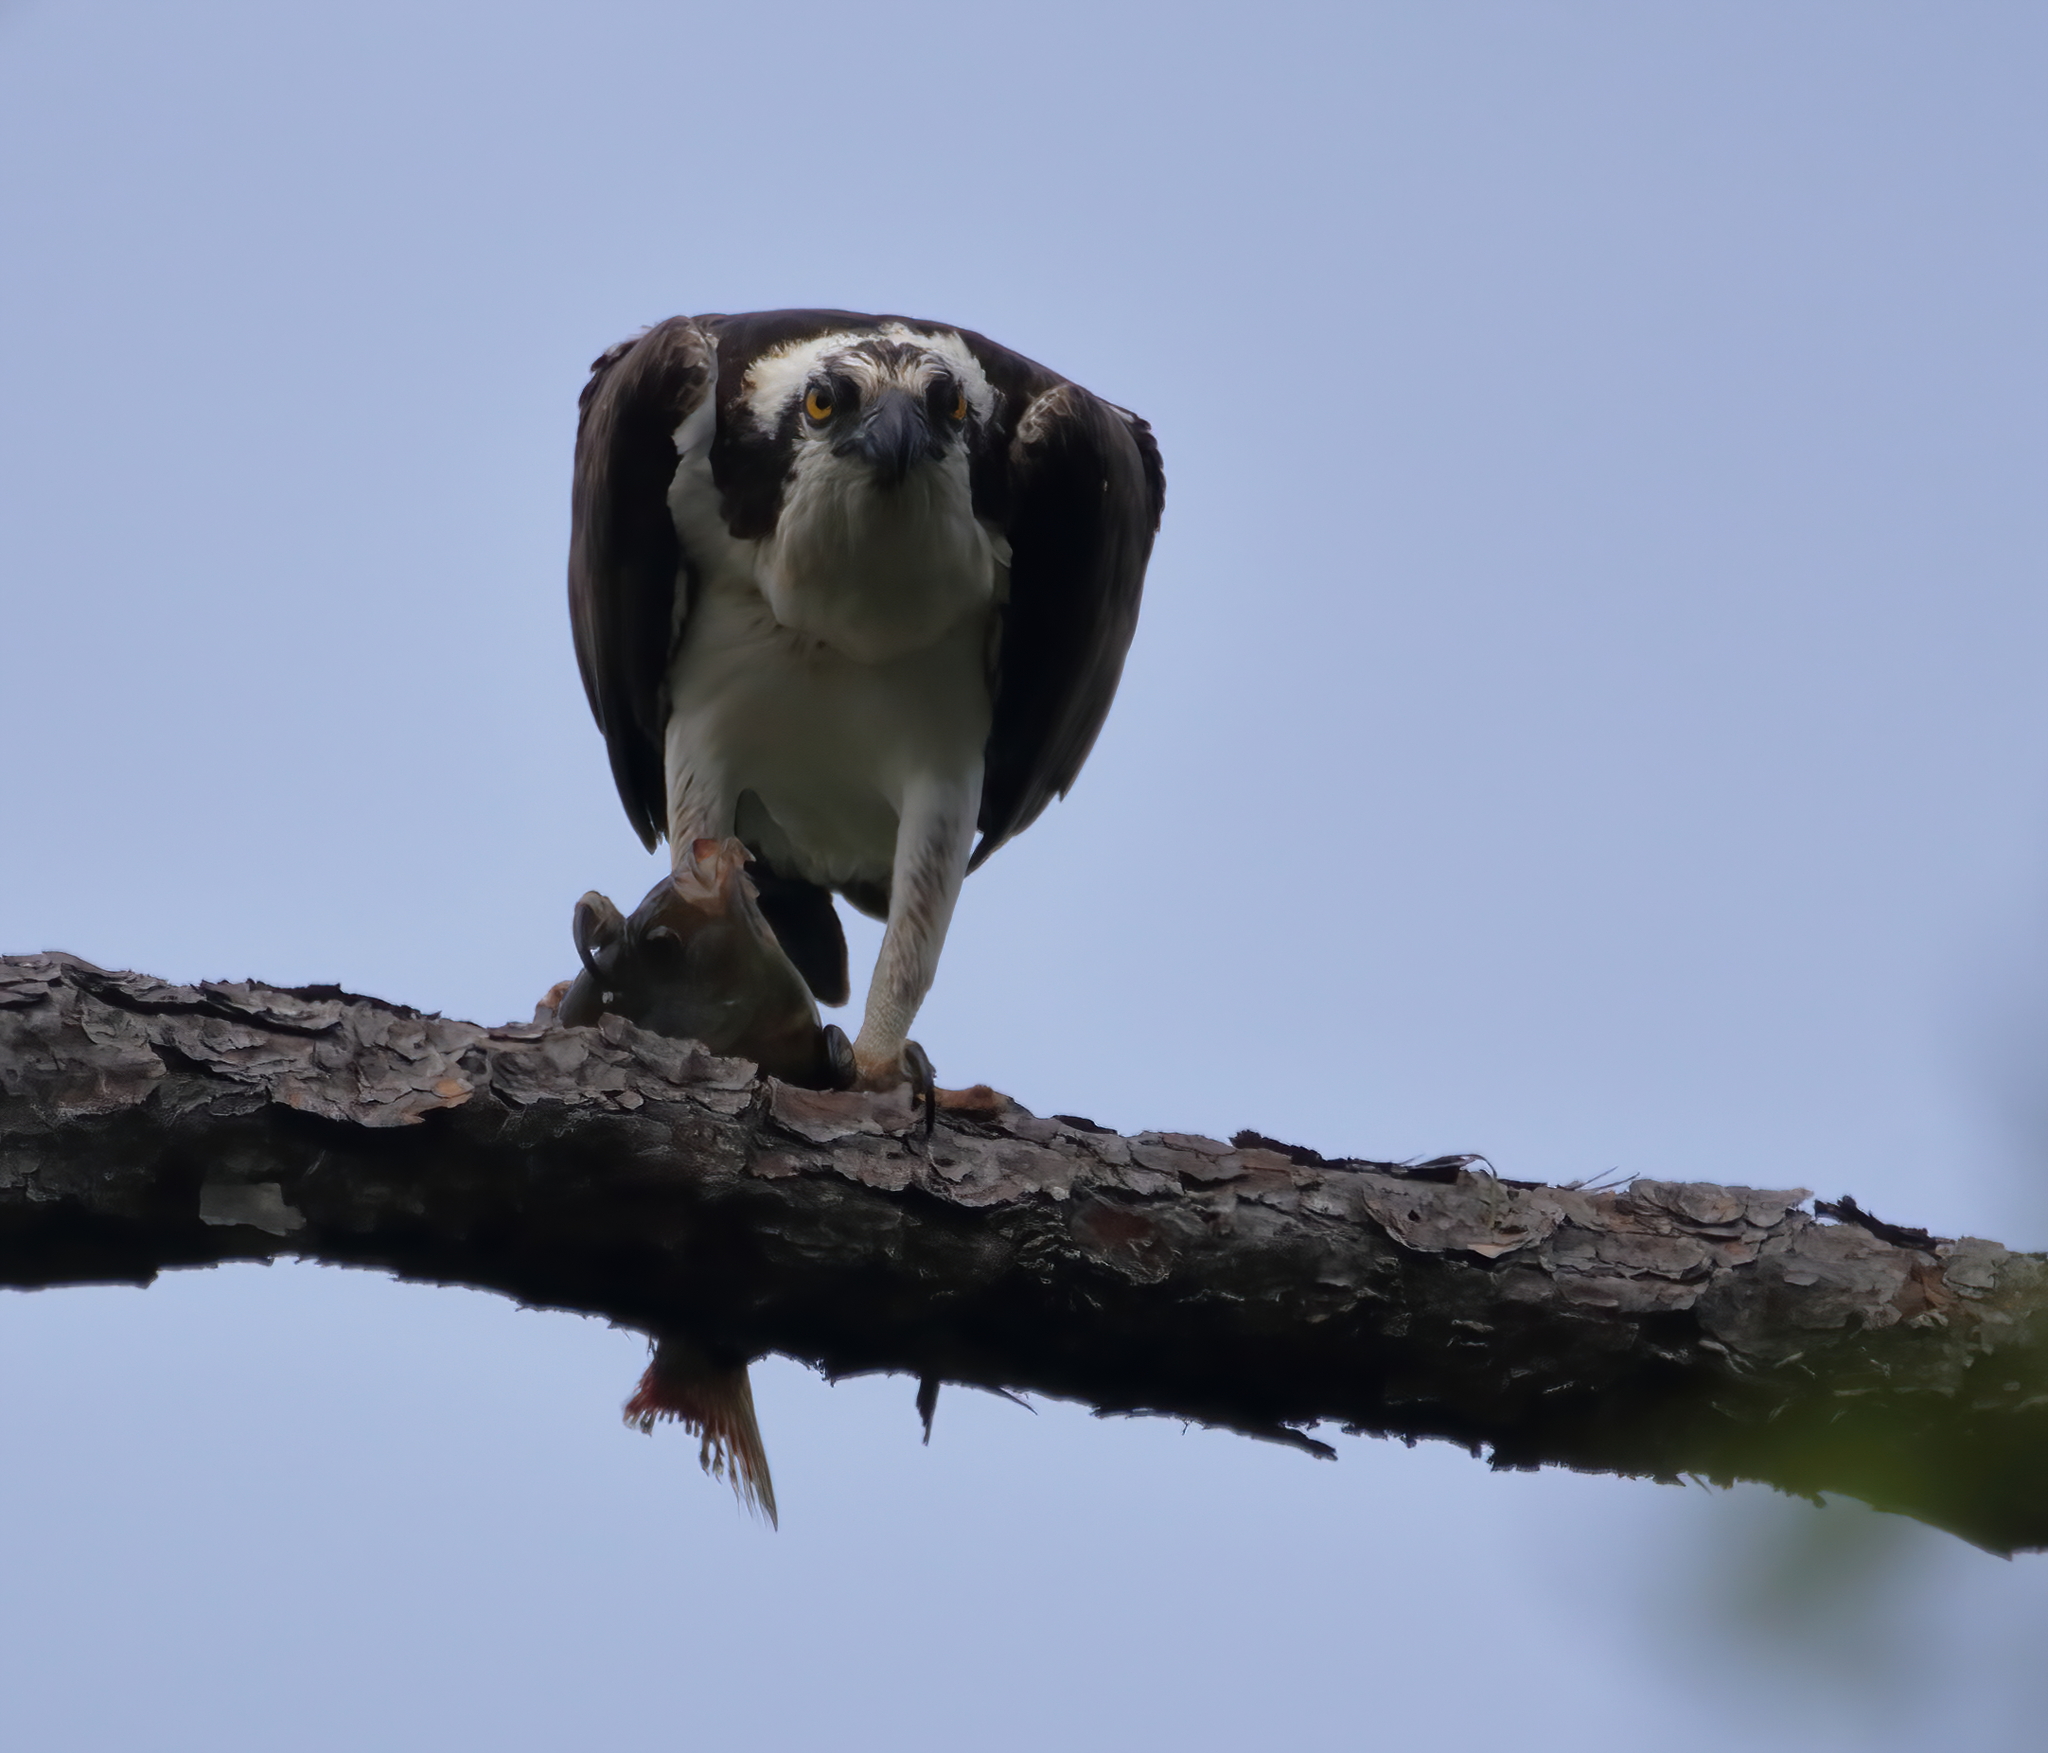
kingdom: Animalia
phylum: Chordata
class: Aves
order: Accipitriformes
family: Pandionidae
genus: Pandion
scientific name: Pandion haliaetus
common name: Osprey
